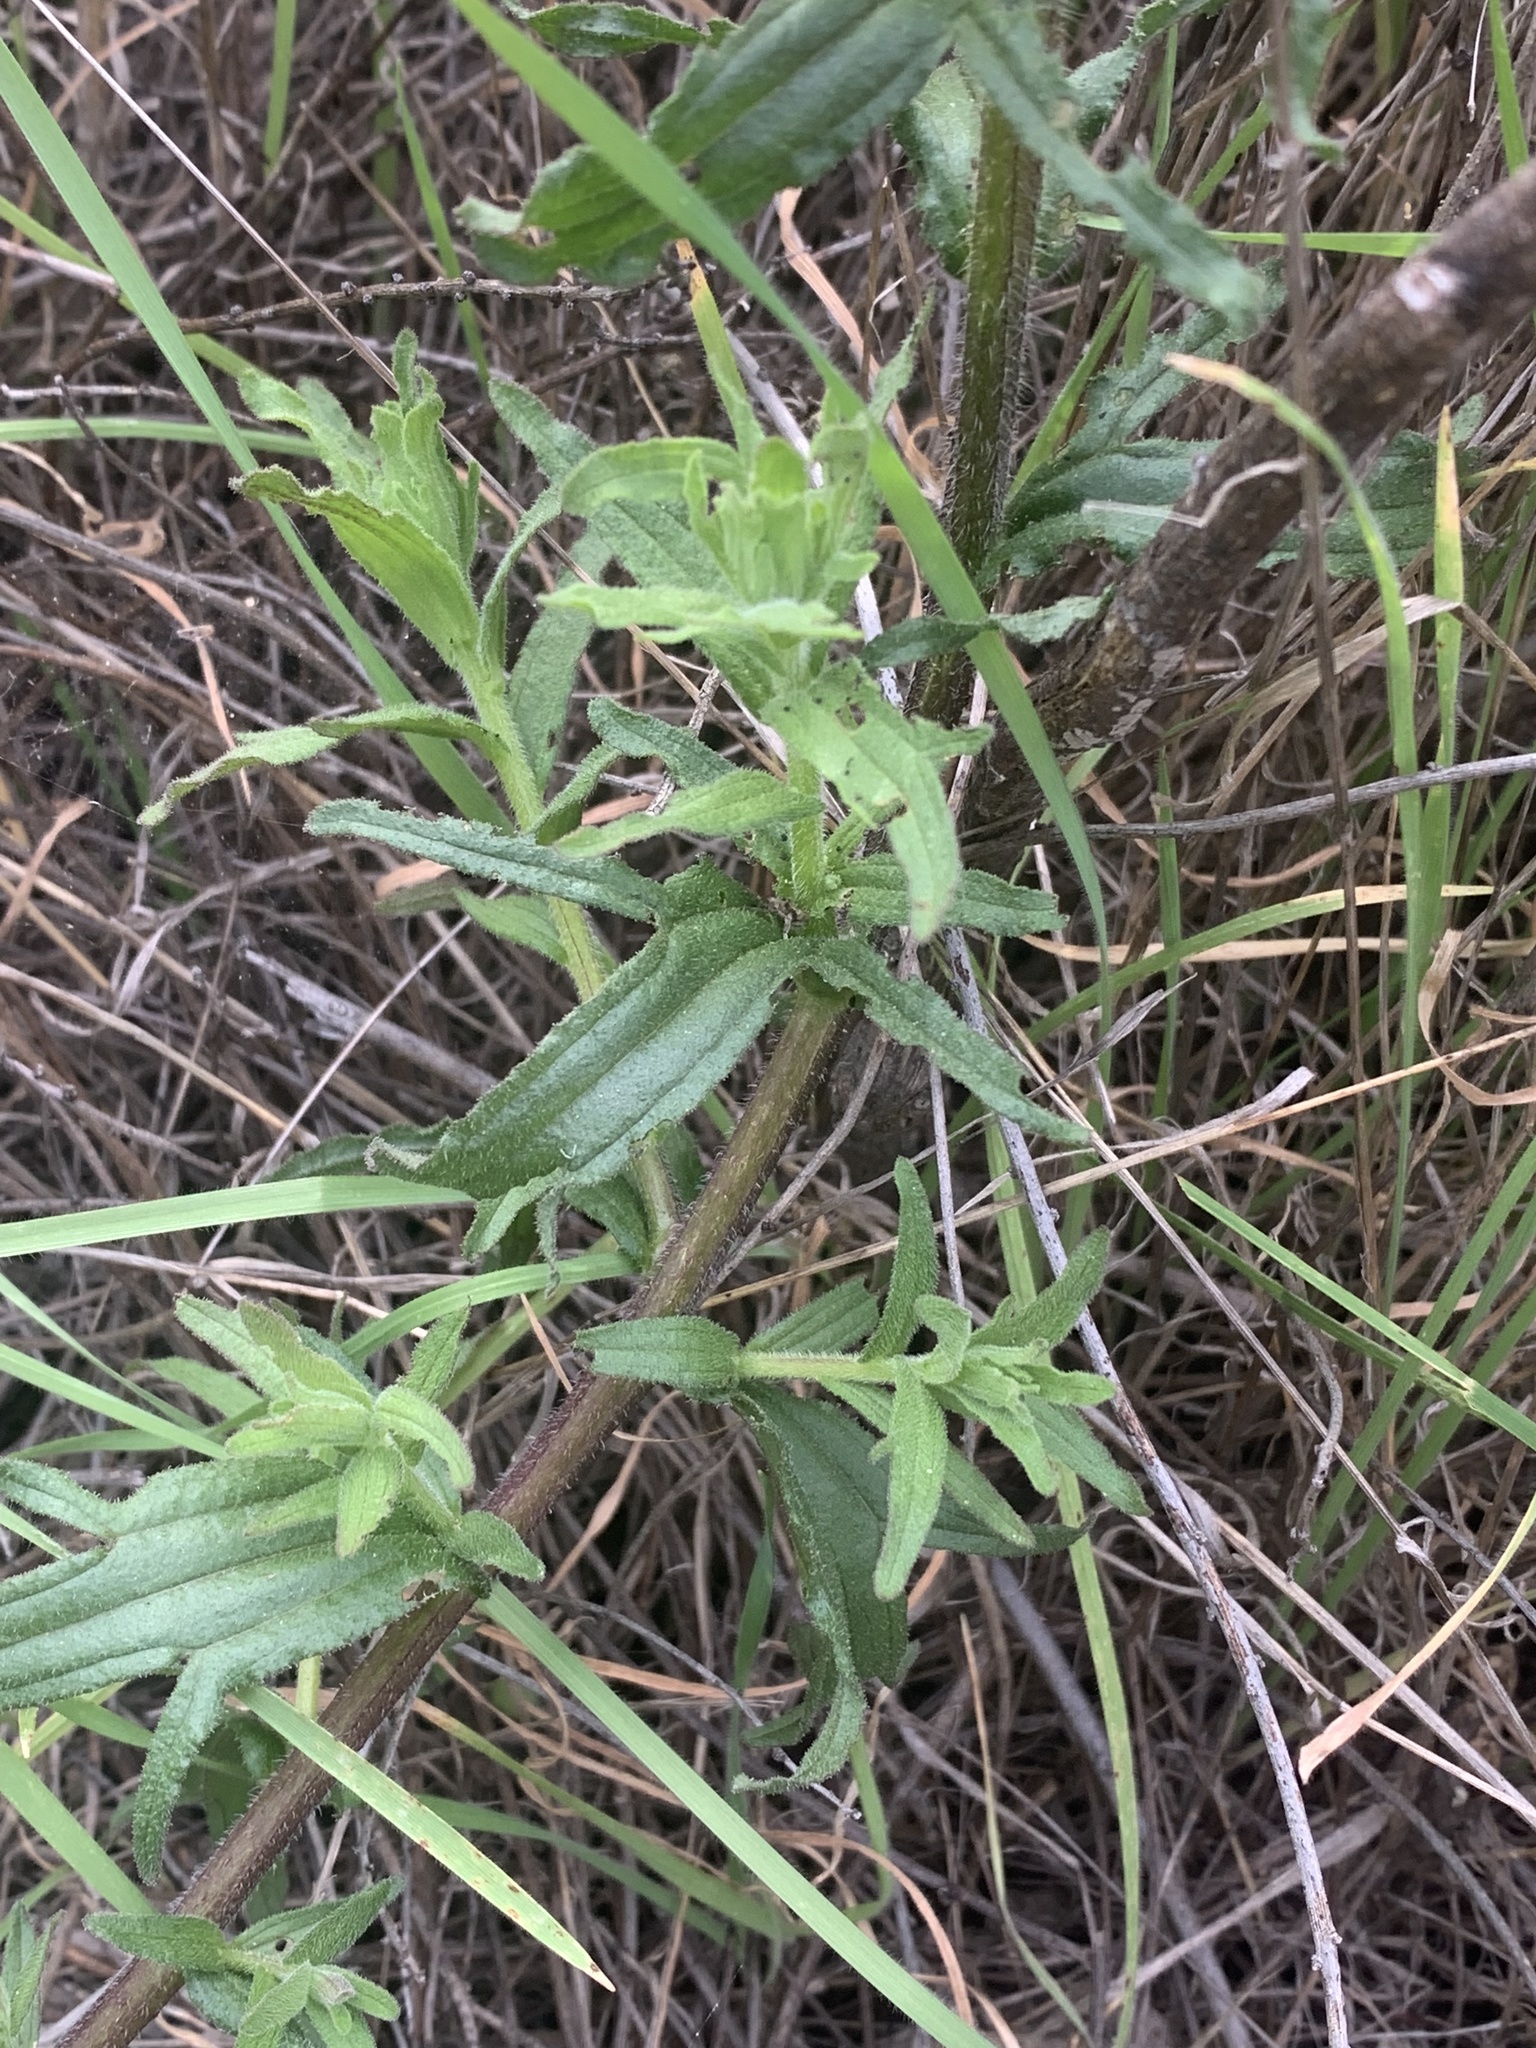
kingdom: Plantae
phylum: Tracheophyta
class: Magnoliopsida
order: Lamiales
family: Orobanchaceae
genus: Castilleja
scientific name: Castilleja affinis
